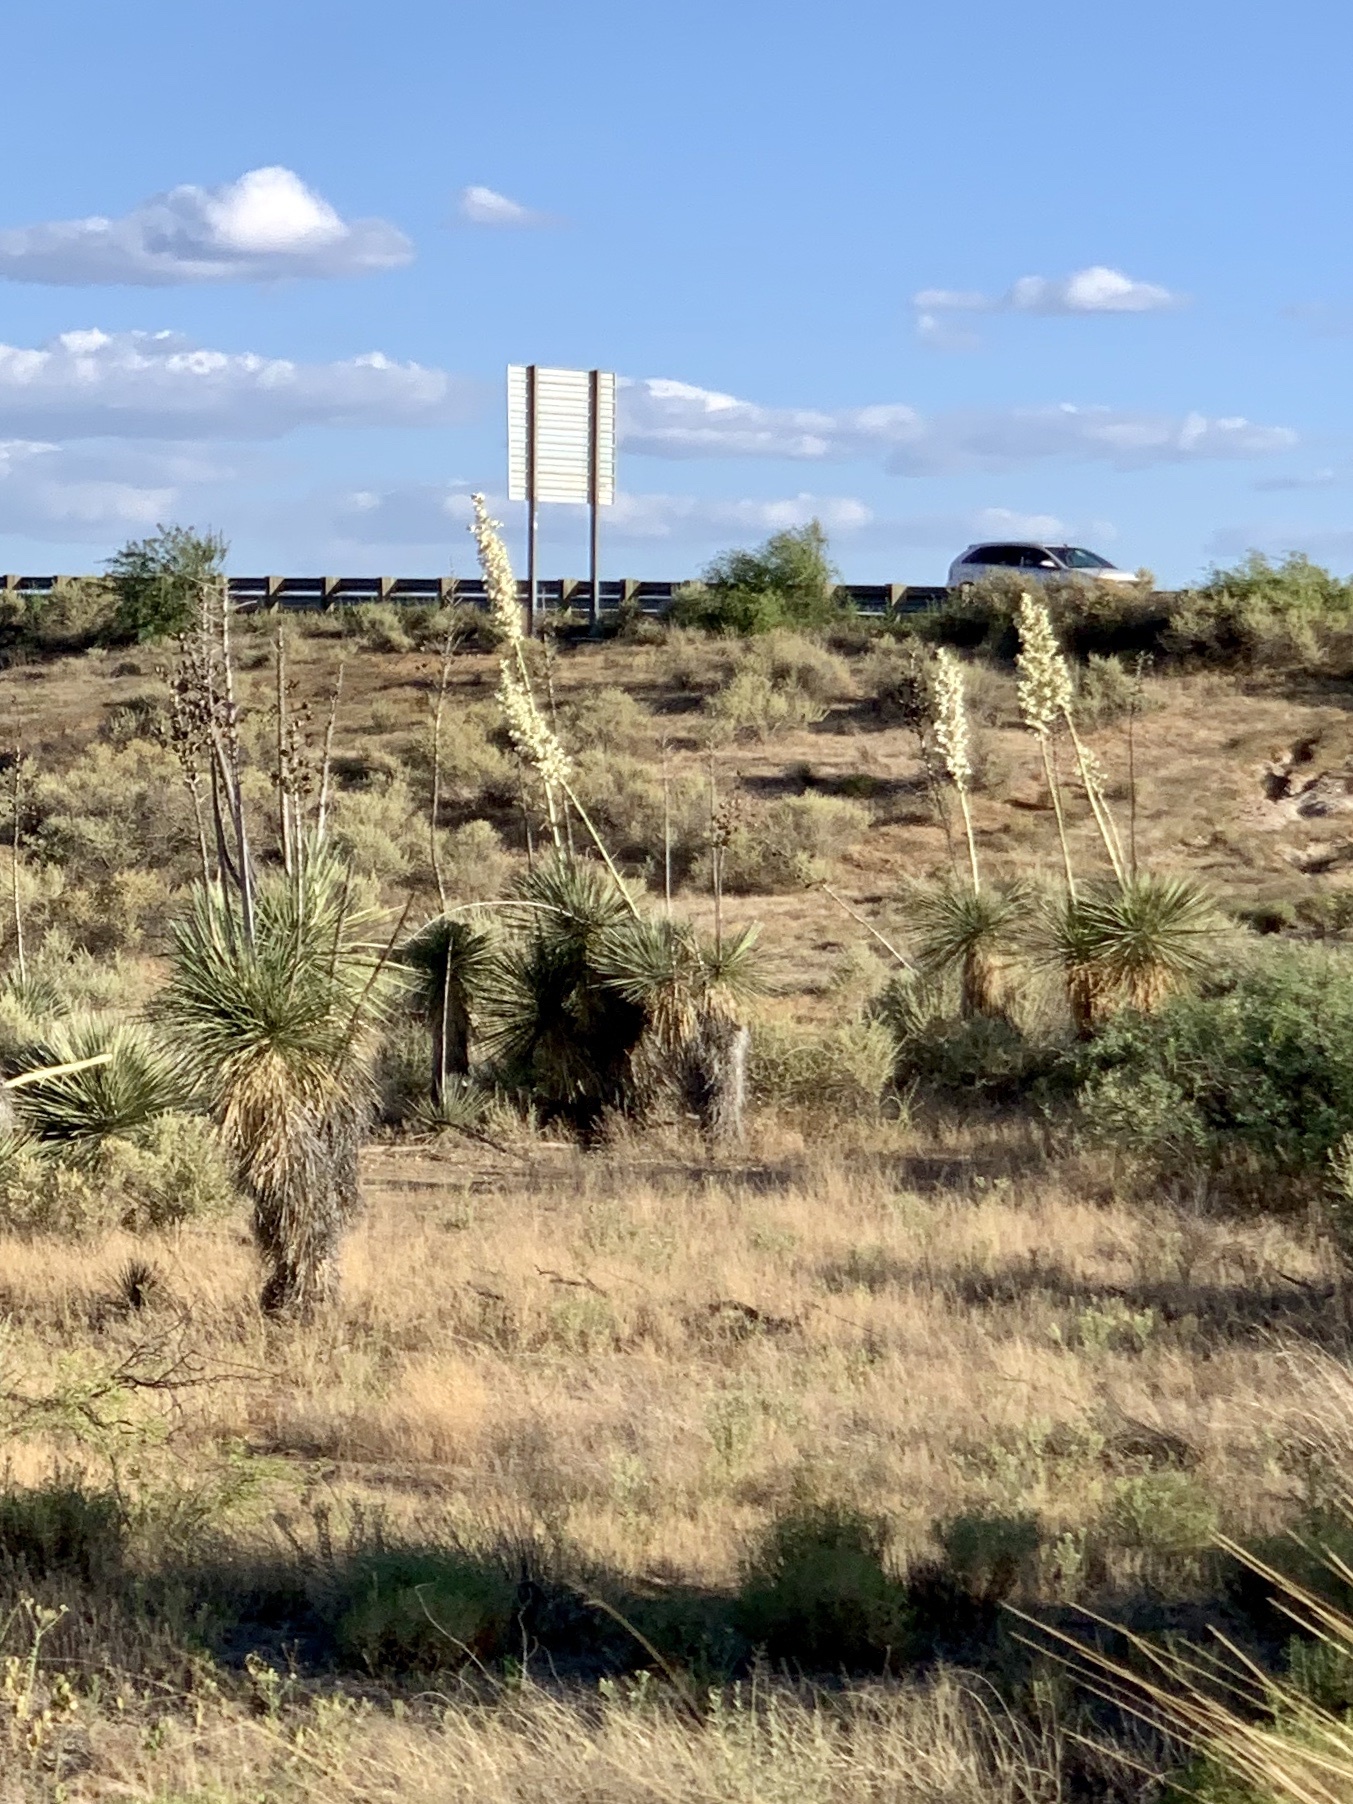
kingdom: Plantae
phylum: Tracheophyta
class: Liliopsida
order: Asparagales
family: Asparagaceae
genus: Yucca
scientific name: Yucca elata
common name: Palmella
